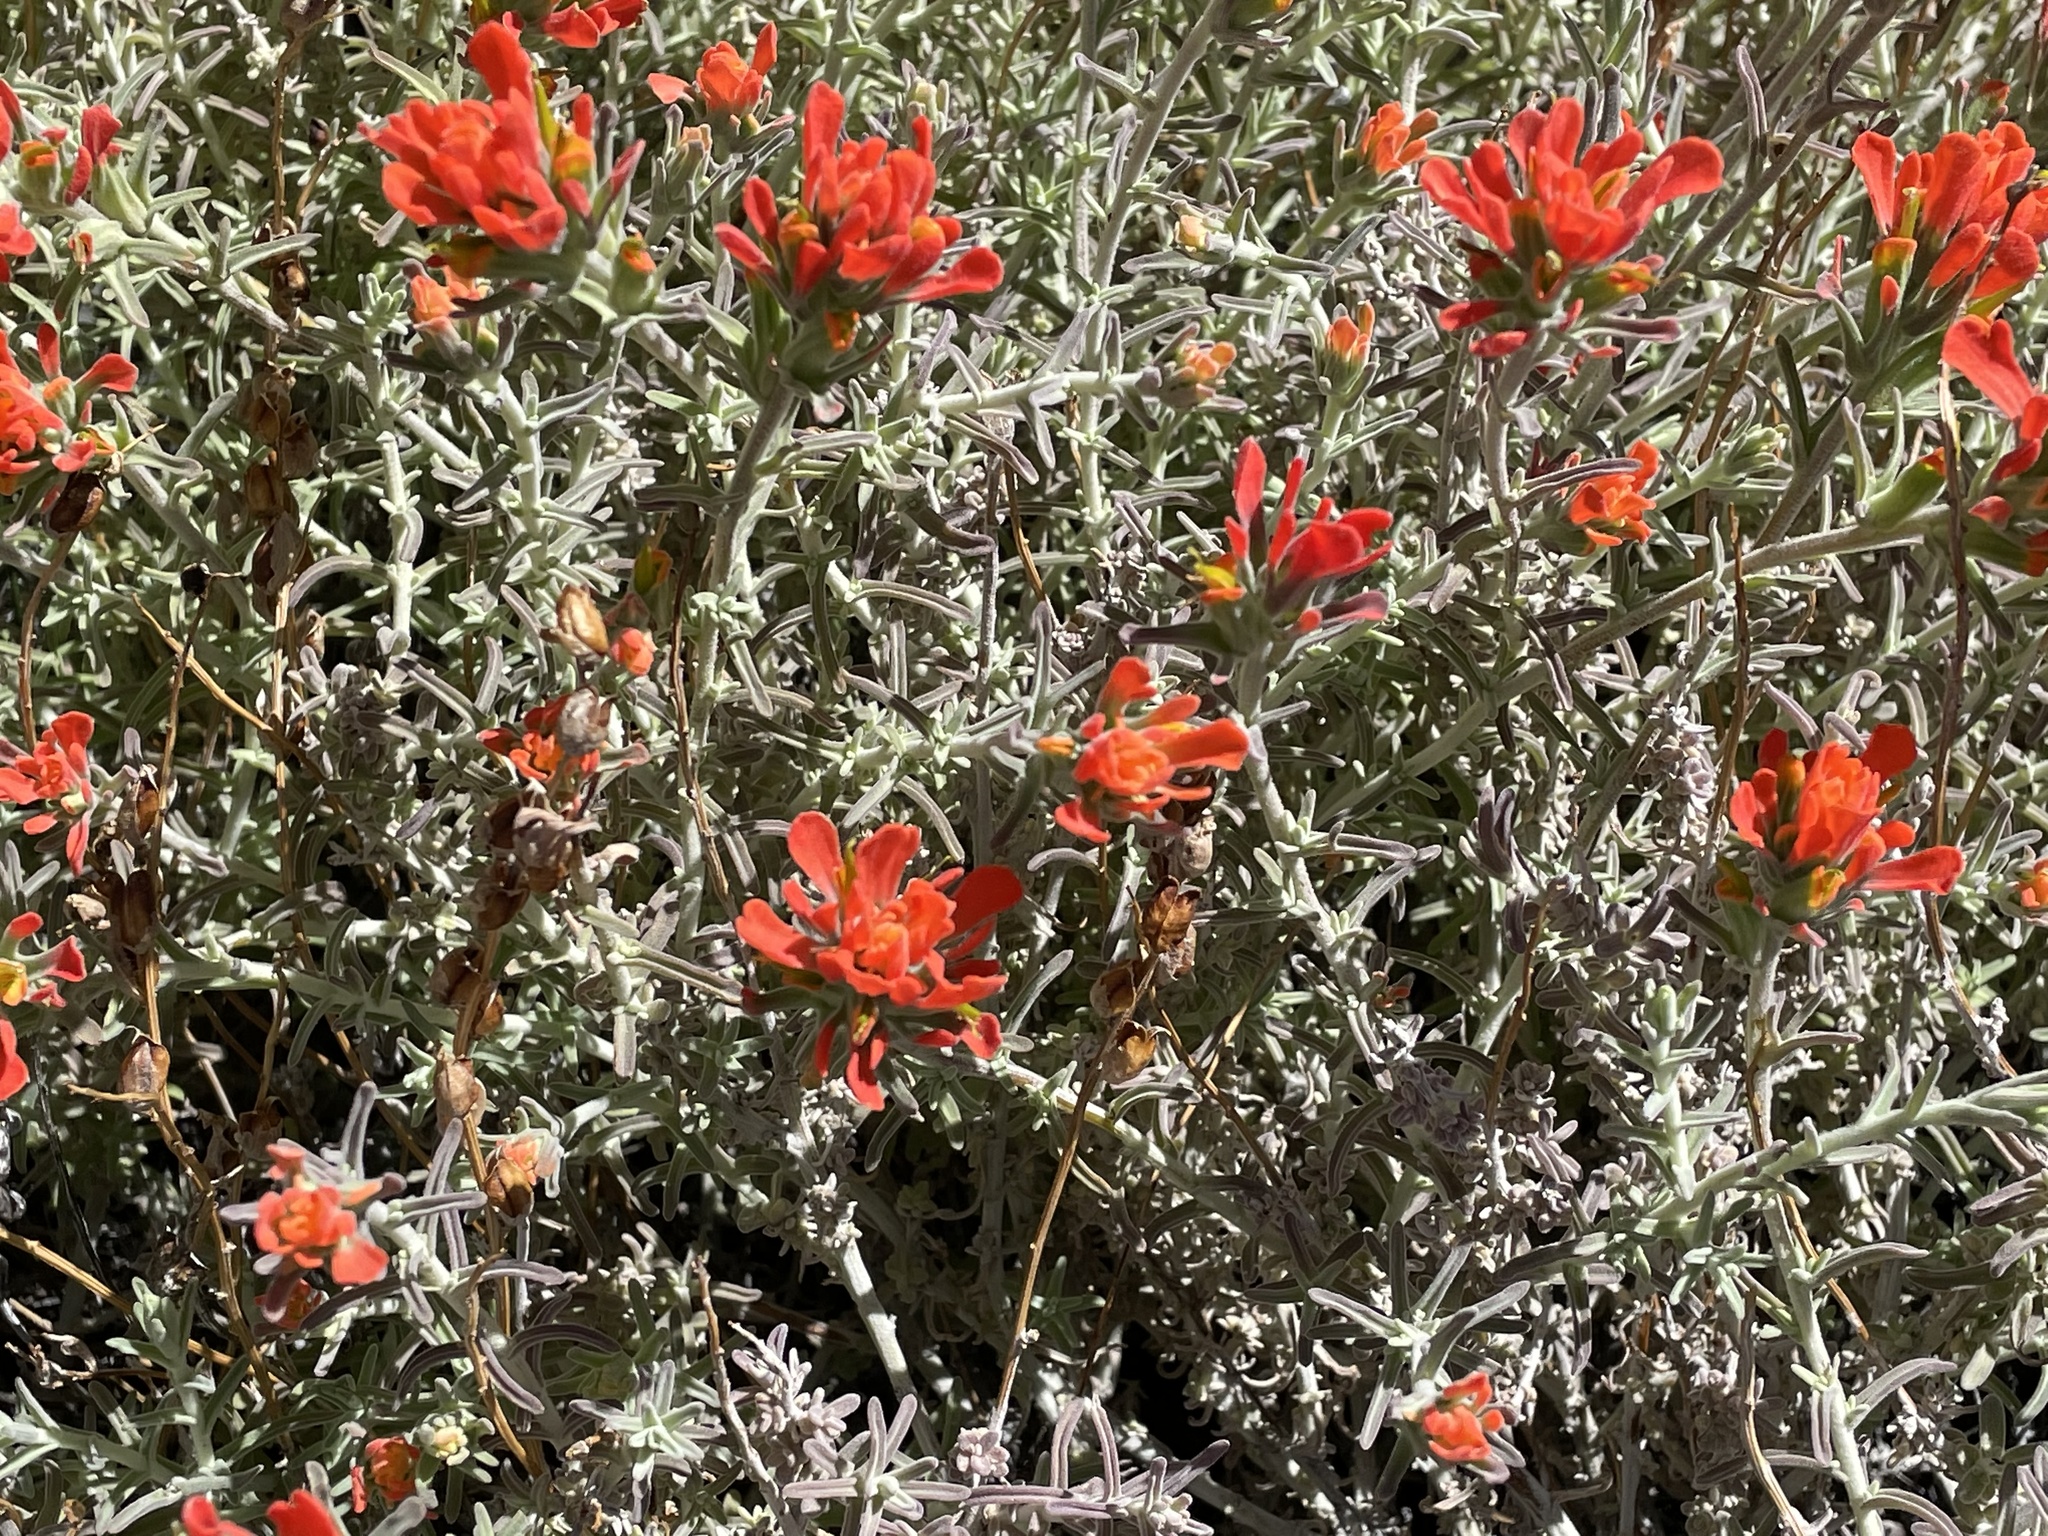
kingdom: Plantae
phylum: Tracheophyta
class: Magnoliopsida
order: Lamiales
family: Orobanchaceae
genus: Castilleja
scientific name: Castilleja foliolosa
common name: Woolly indian paintbrush
